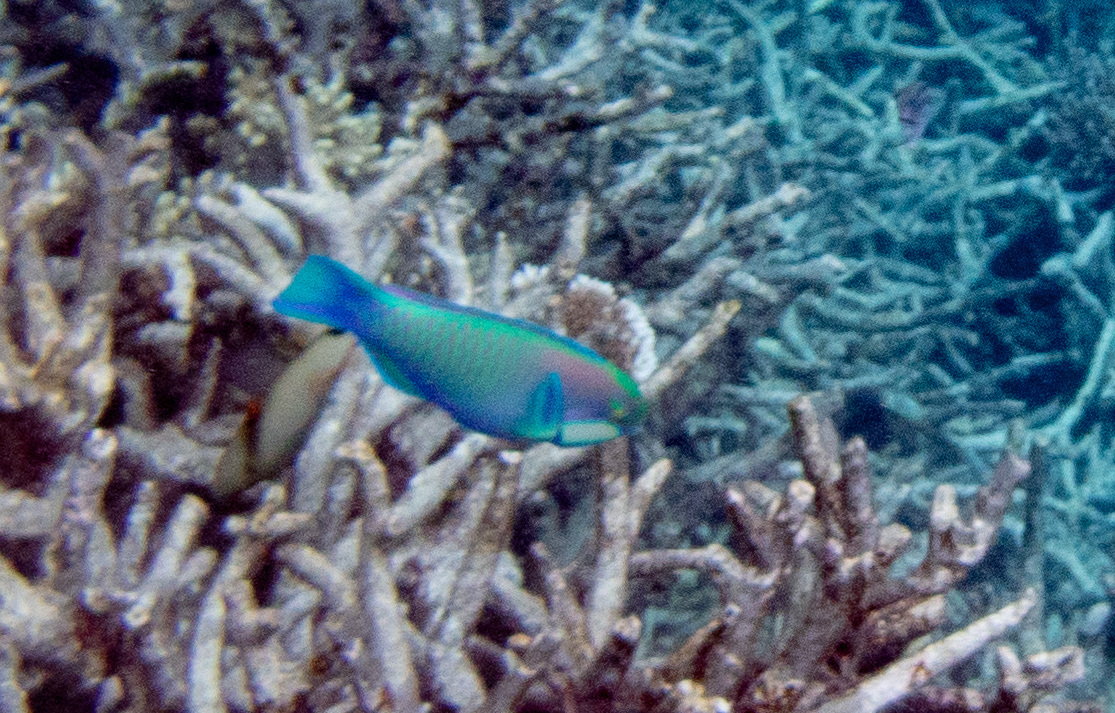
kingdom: Animalia
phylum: Chordata
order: Perciformes
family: Scaridae
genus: Chlorurus
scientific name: Chlorurus bleekeri
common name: Bleeker's parrotfish
